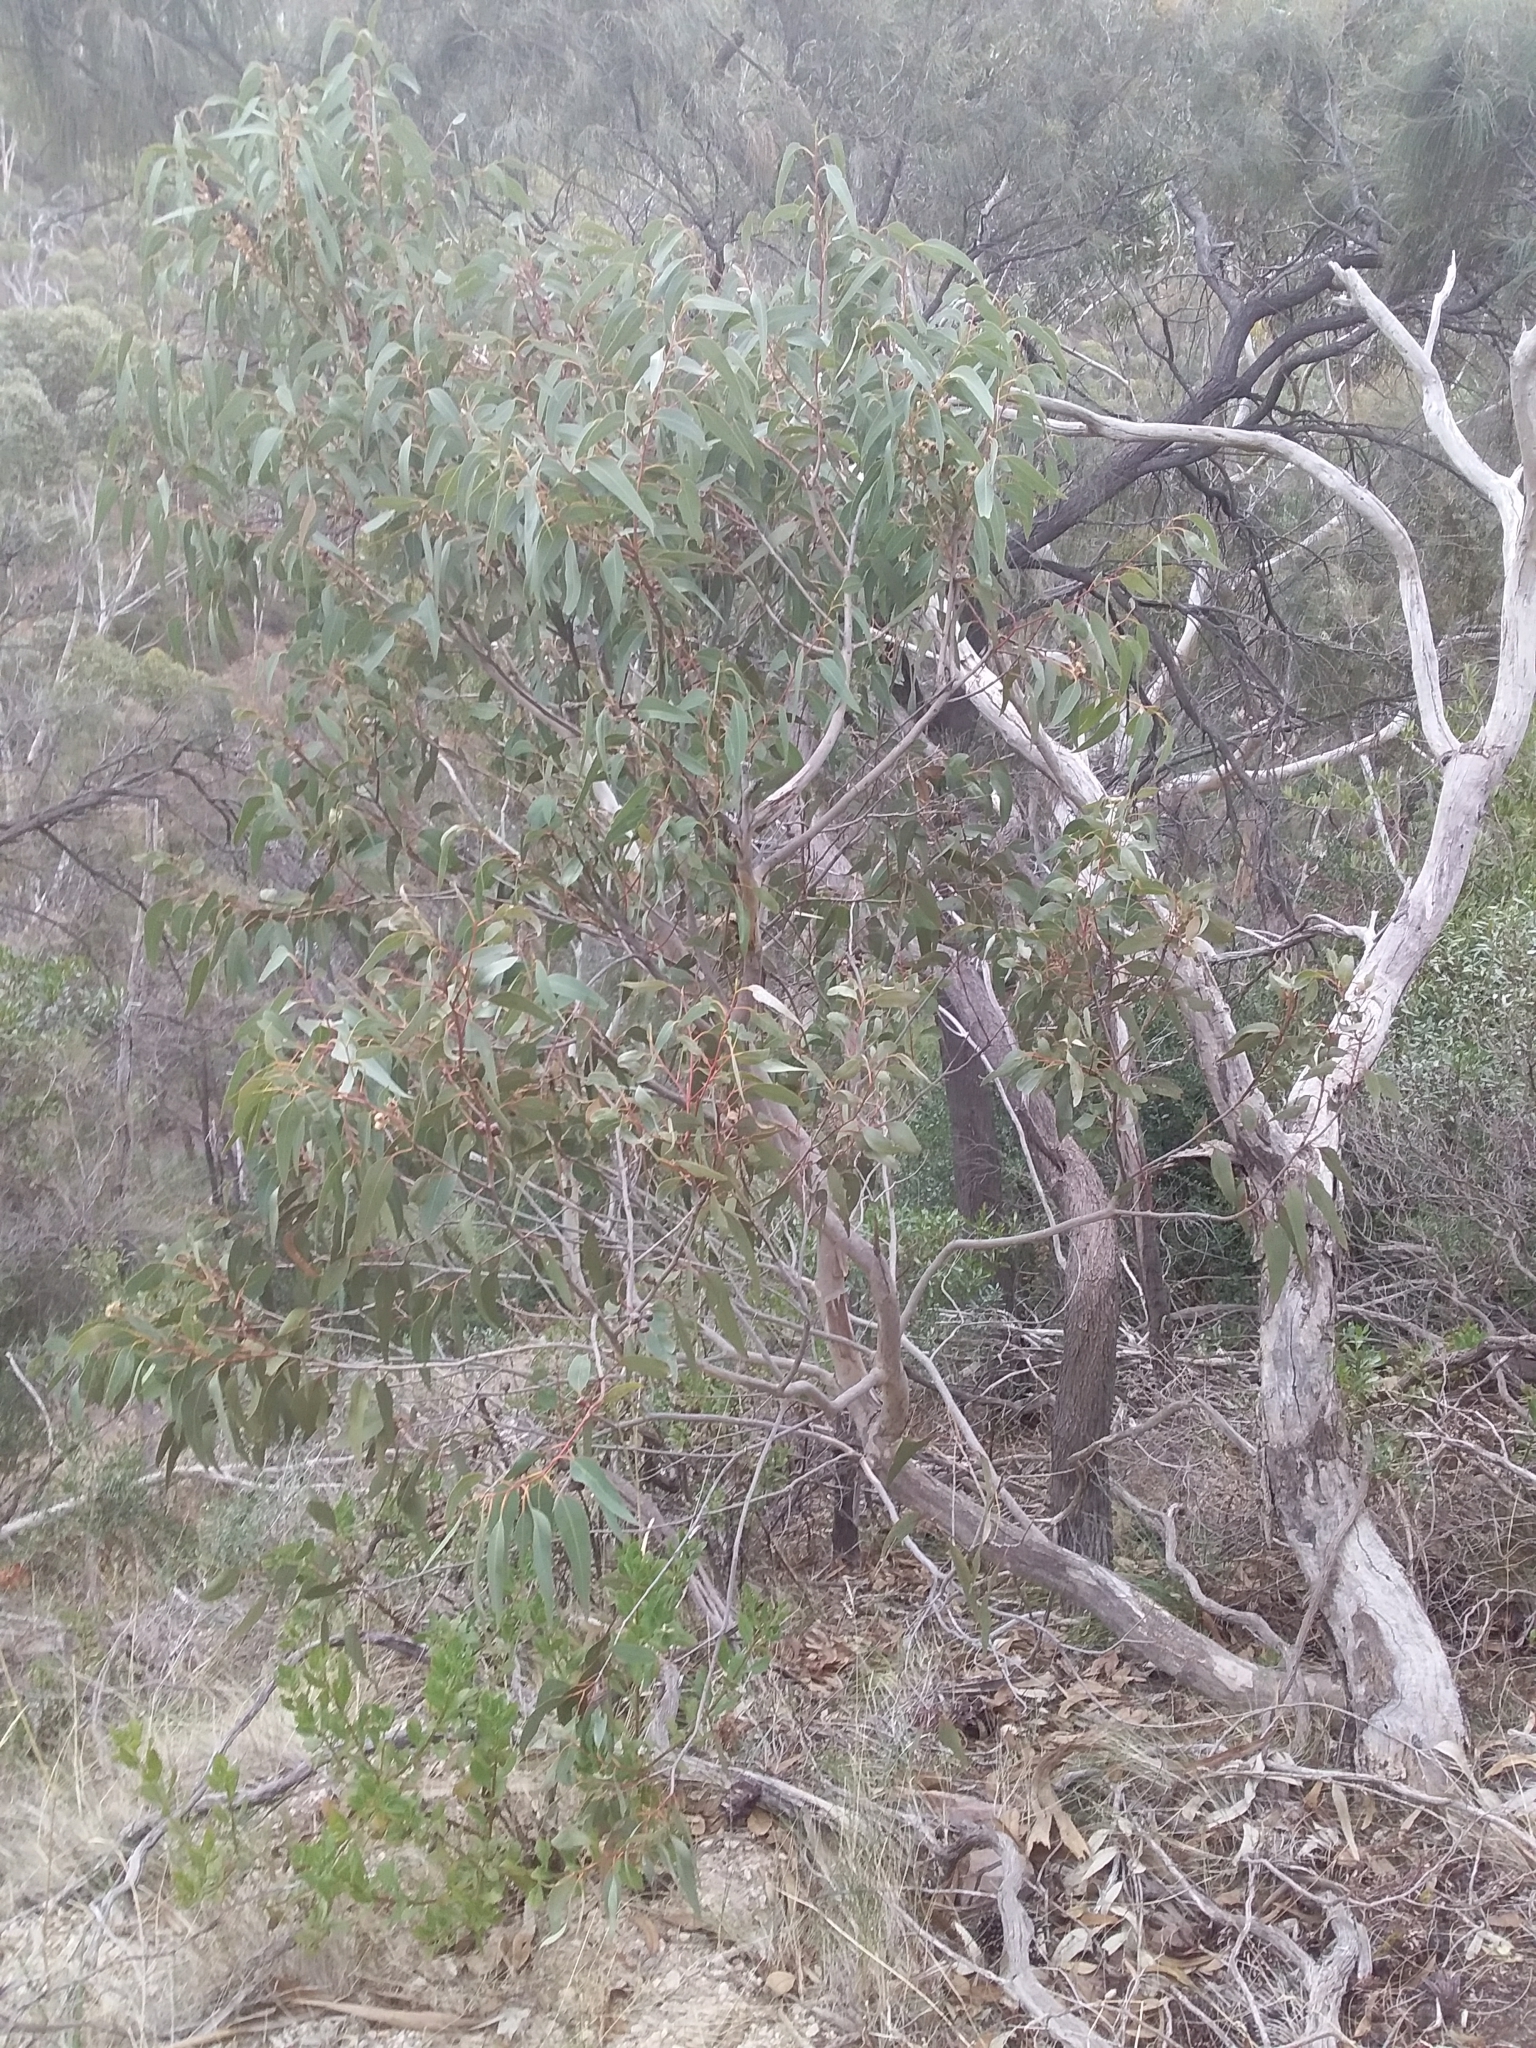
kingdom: Plantae
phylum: Tracheophyta
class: Magnoliopsida
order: Myrtales
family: Myrtaceae
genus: Eucalyptus
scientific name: Eucalyptus cosmophylla
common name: Bog-gum
